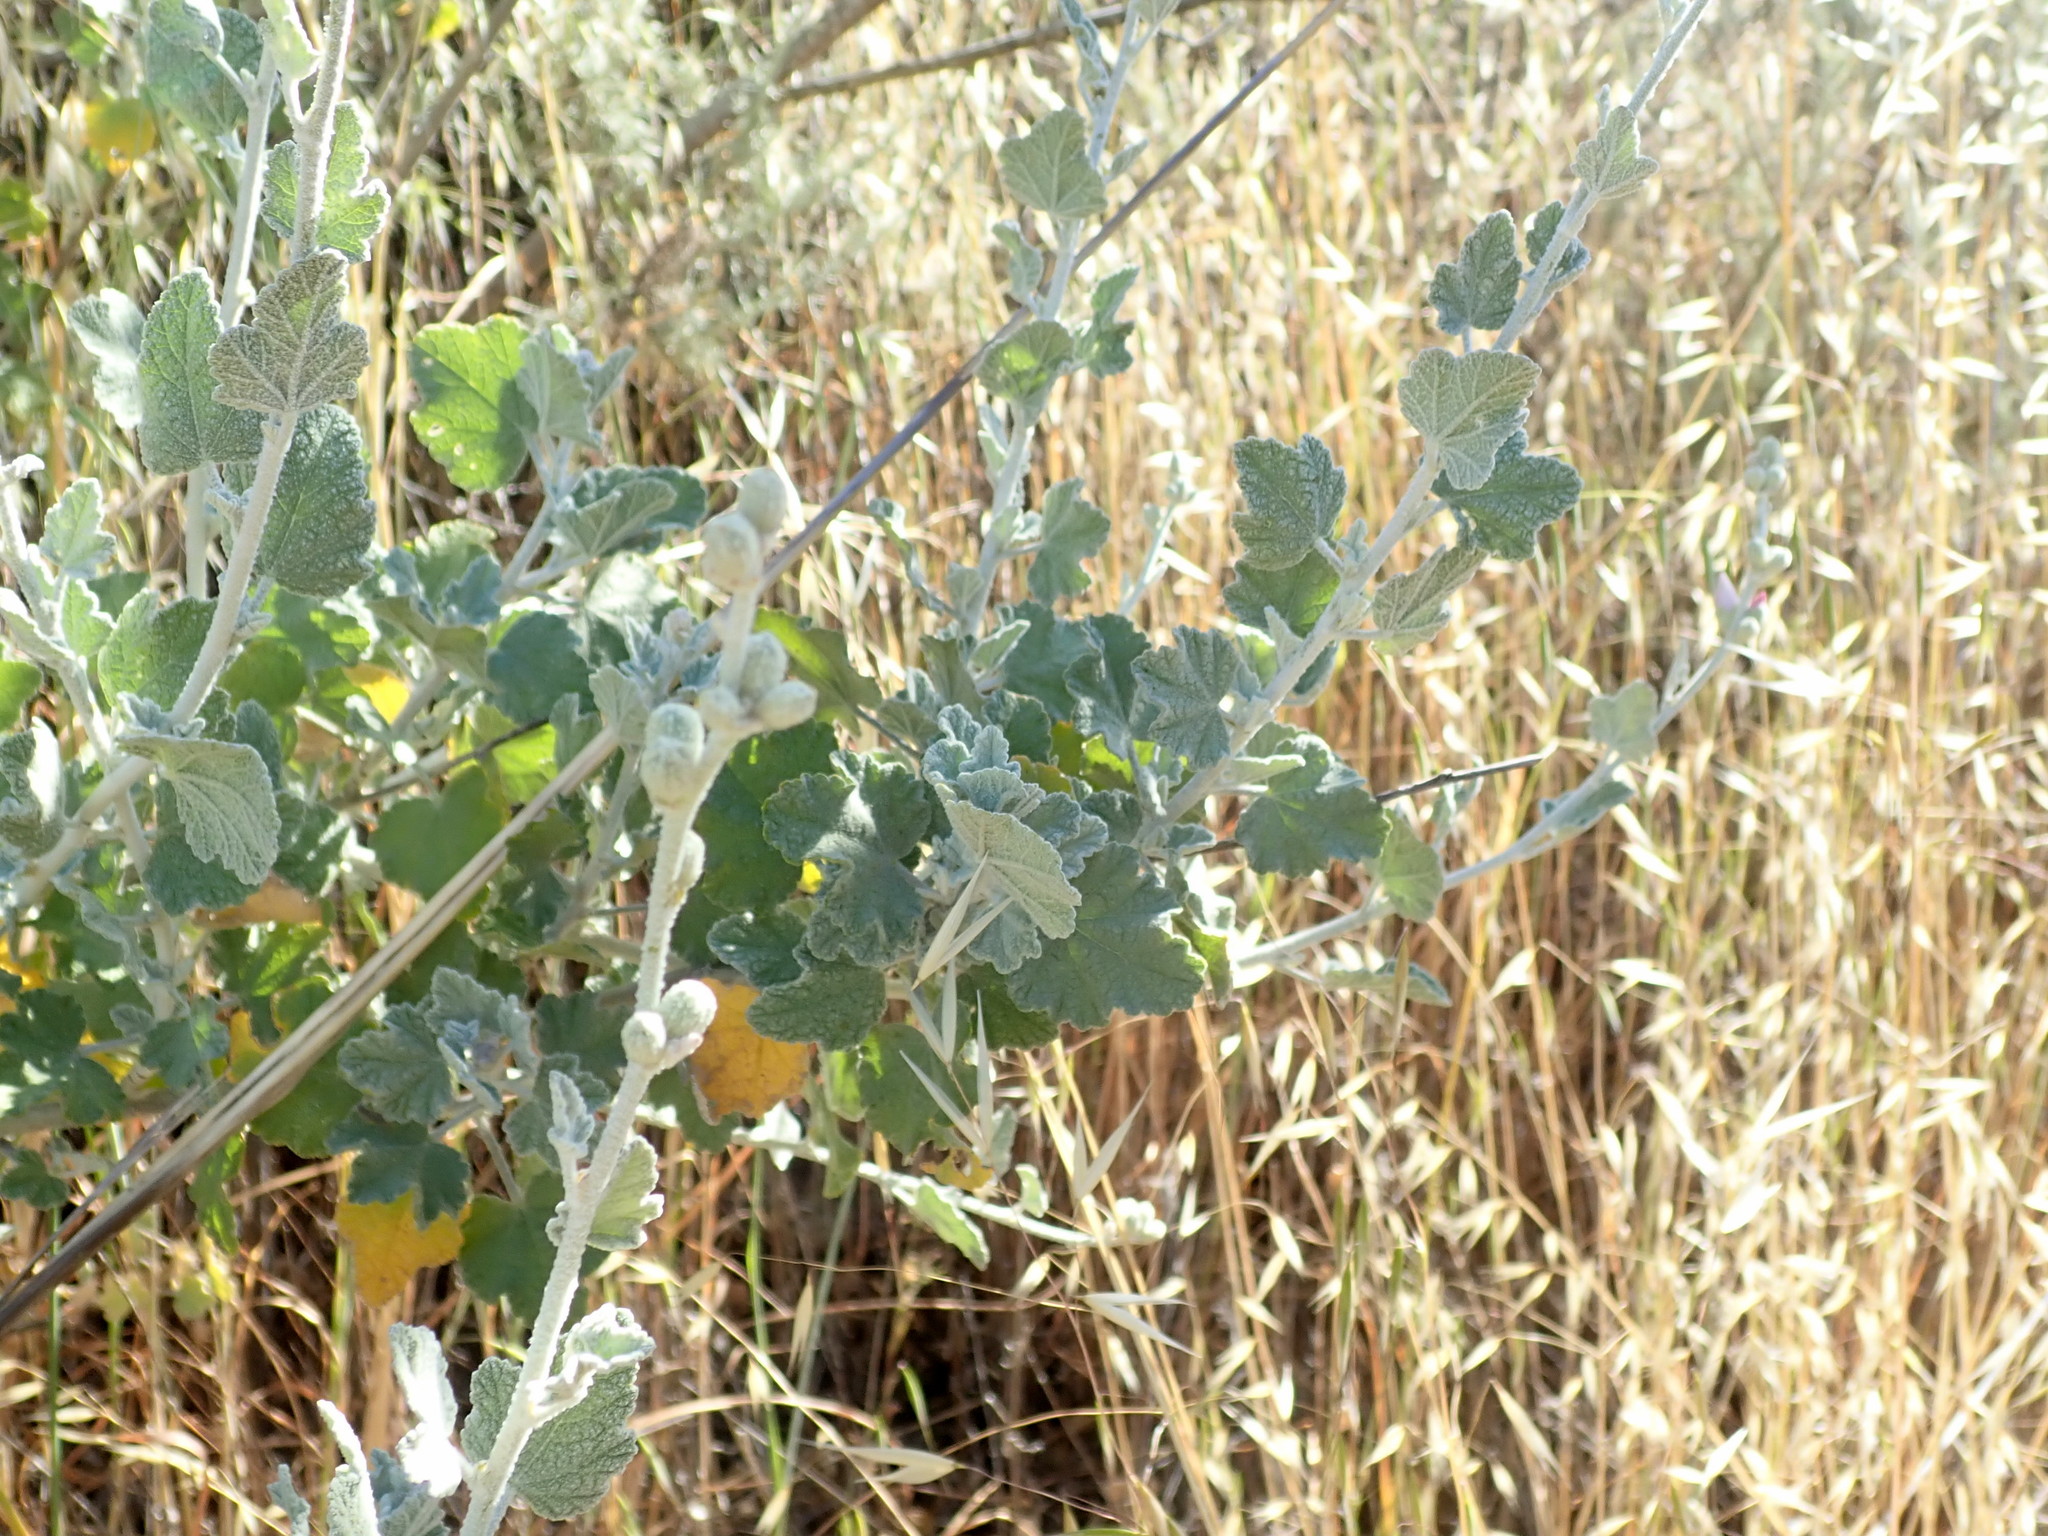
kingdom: Plantae
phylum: Tracheophyta
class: Magnoliopsida
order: Malvales
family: Malvaceae
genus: Malacothamnus
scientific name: Malacothamnus fasciculatus
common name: Sant cruz island bush-mallow
